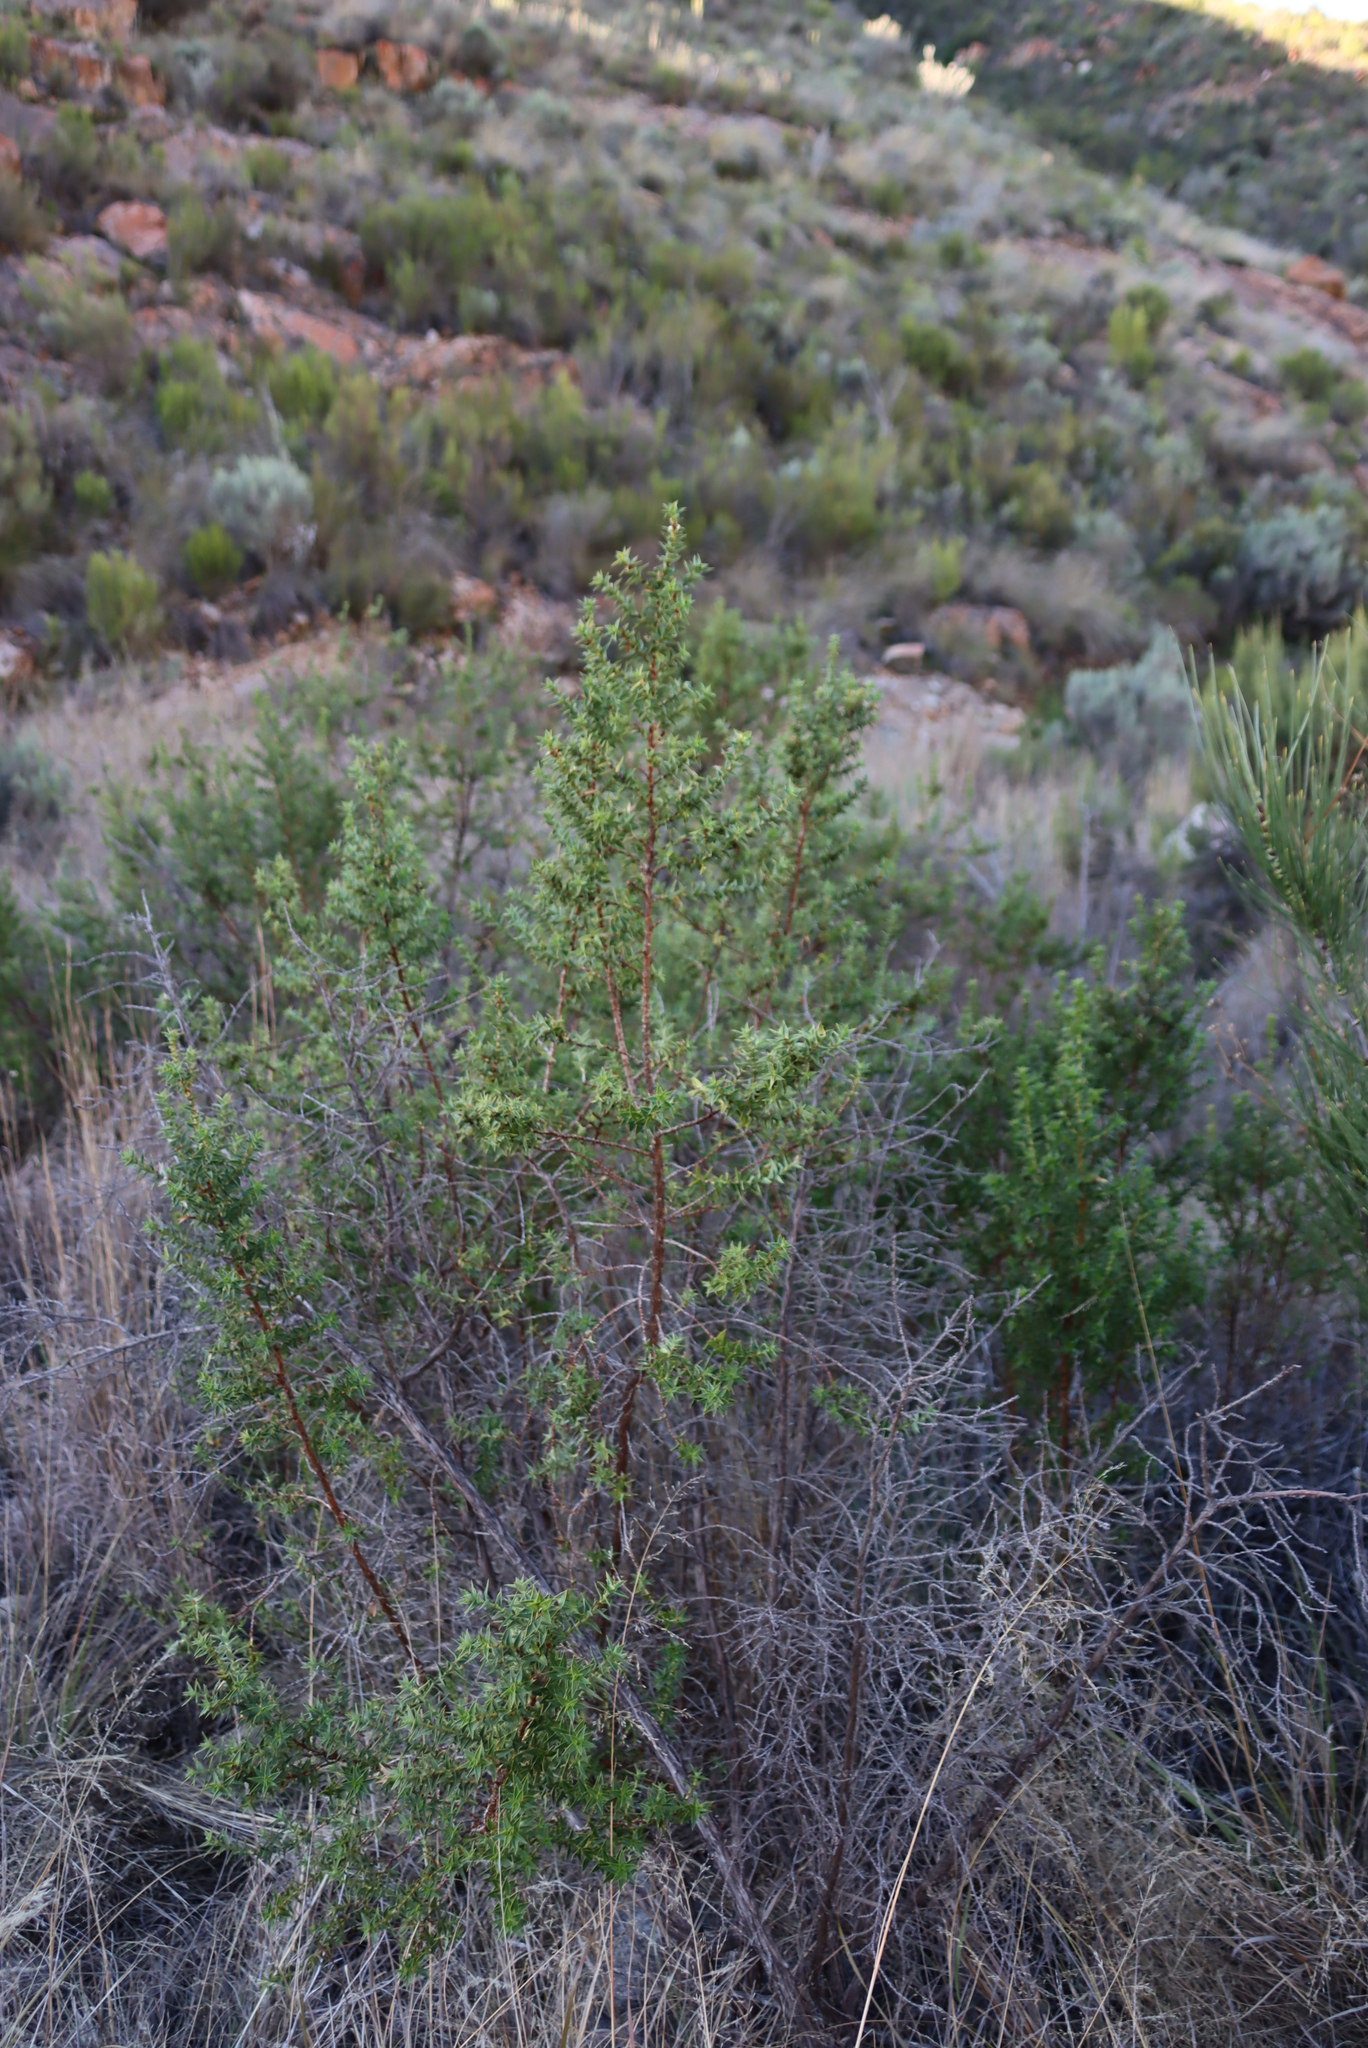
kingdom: Plantae
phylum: Tracheophyta
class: Magnoliopsida
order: Rosales
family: Rosaceae
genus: Cliffortia
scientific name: Cliffortia ilicifolia
